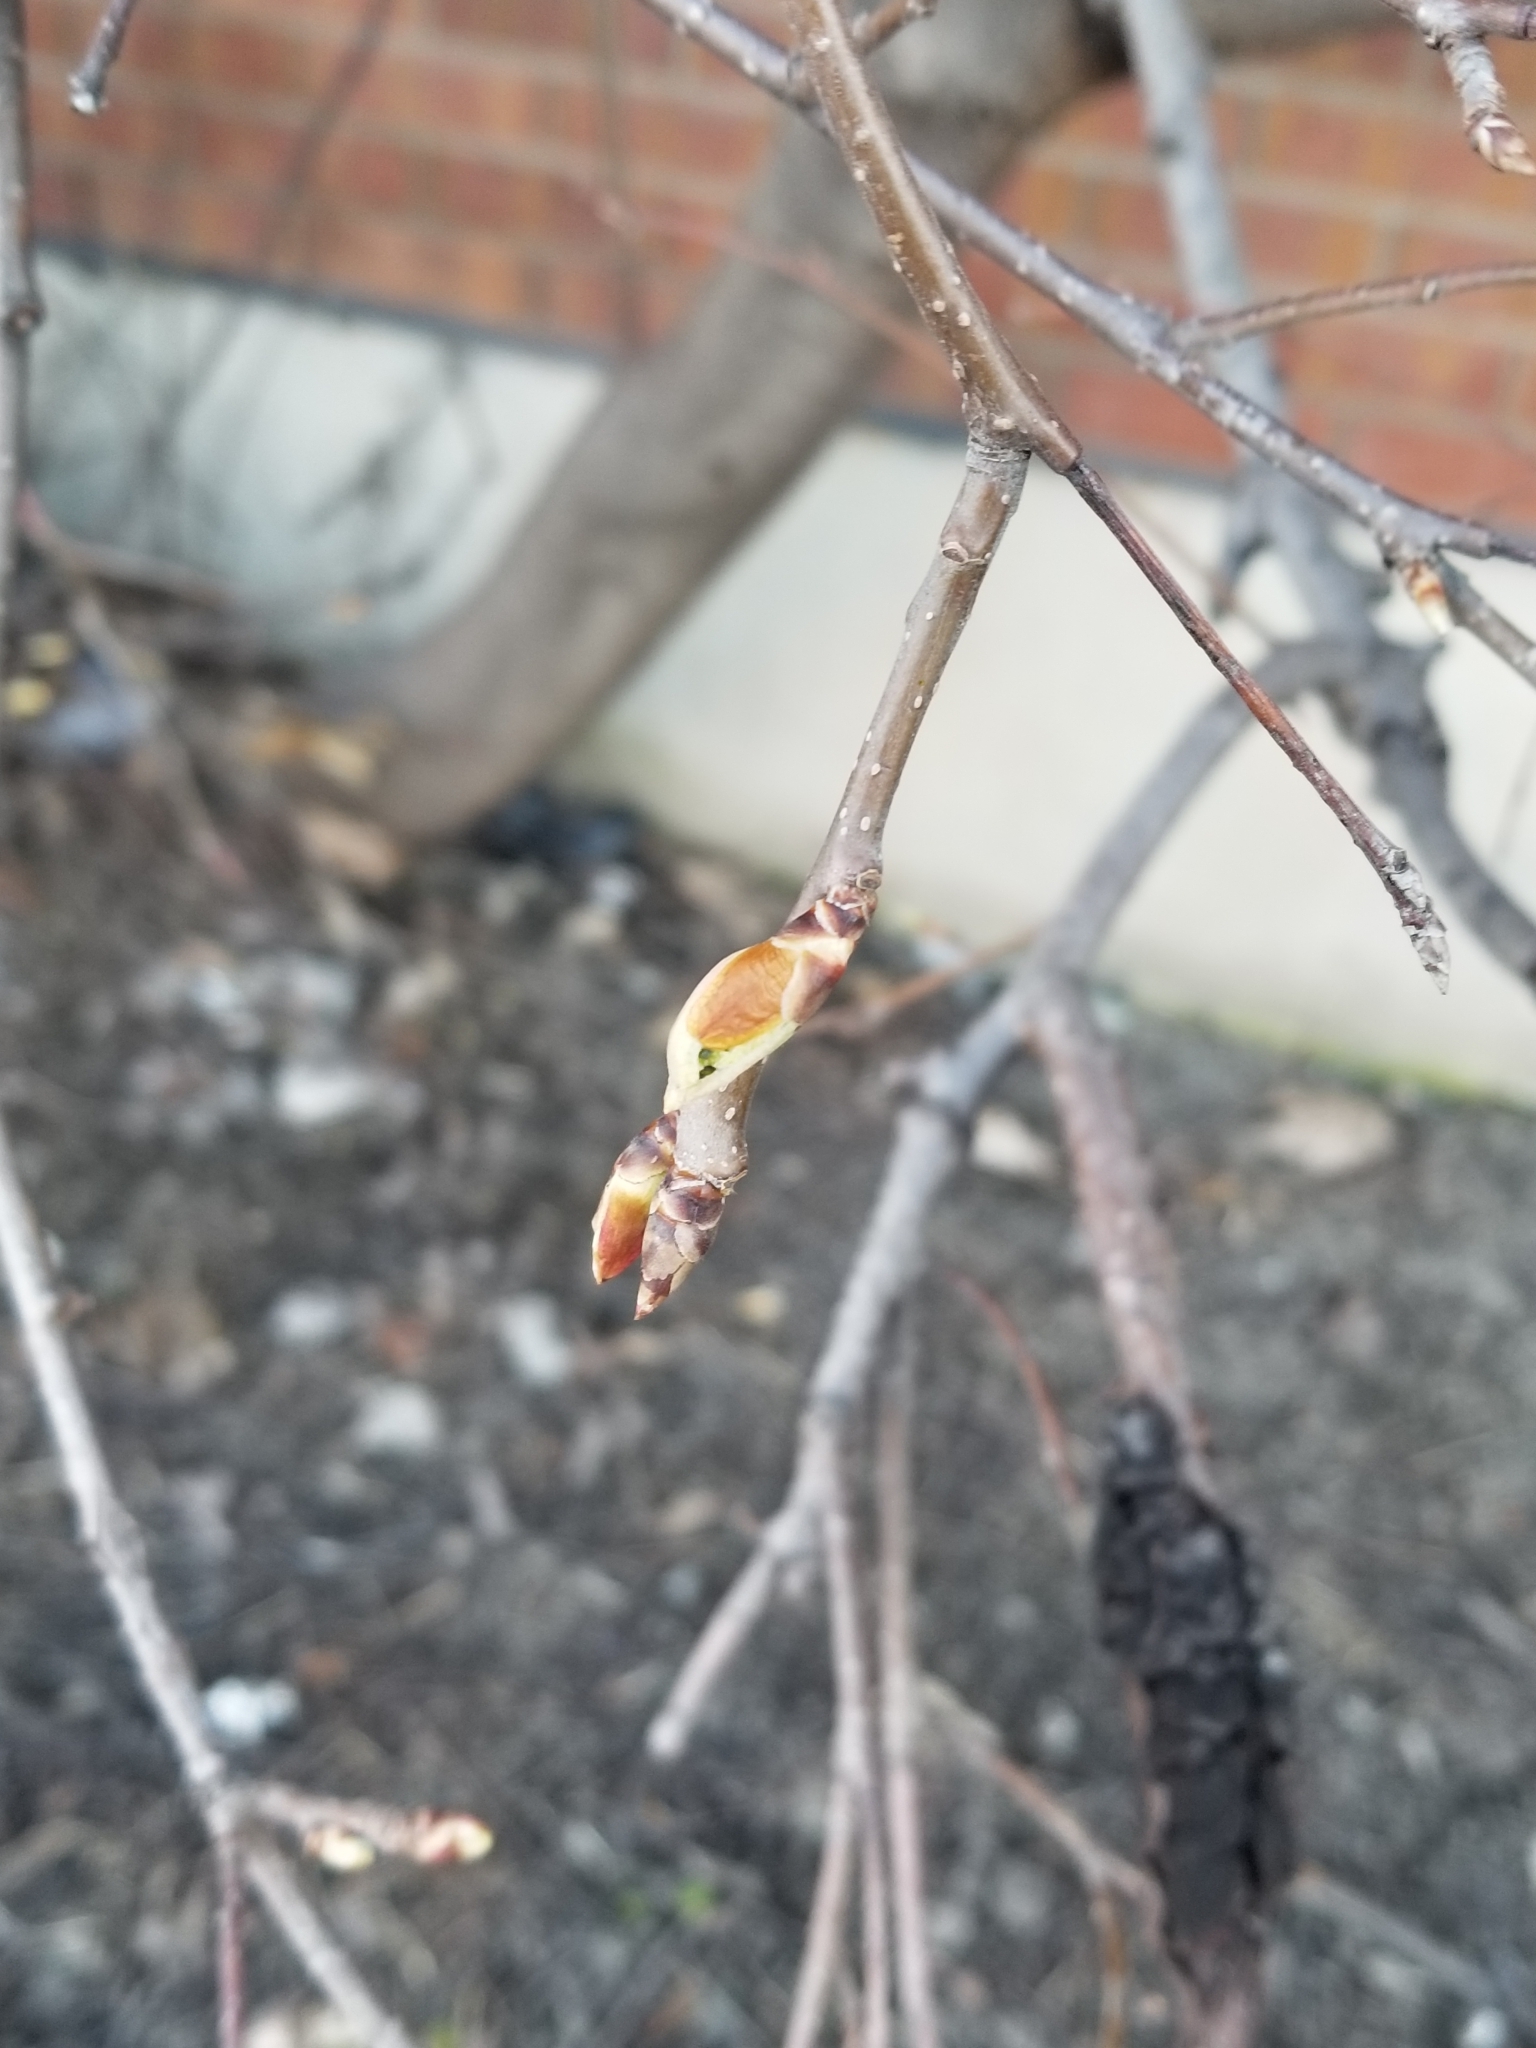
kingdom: Fungi
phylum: Ascomycota
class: Dothideomycetes
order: Venturiales
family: Venturiaceae
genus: Apiosporina
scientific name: Apiosporina morbosa
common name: Black knot
